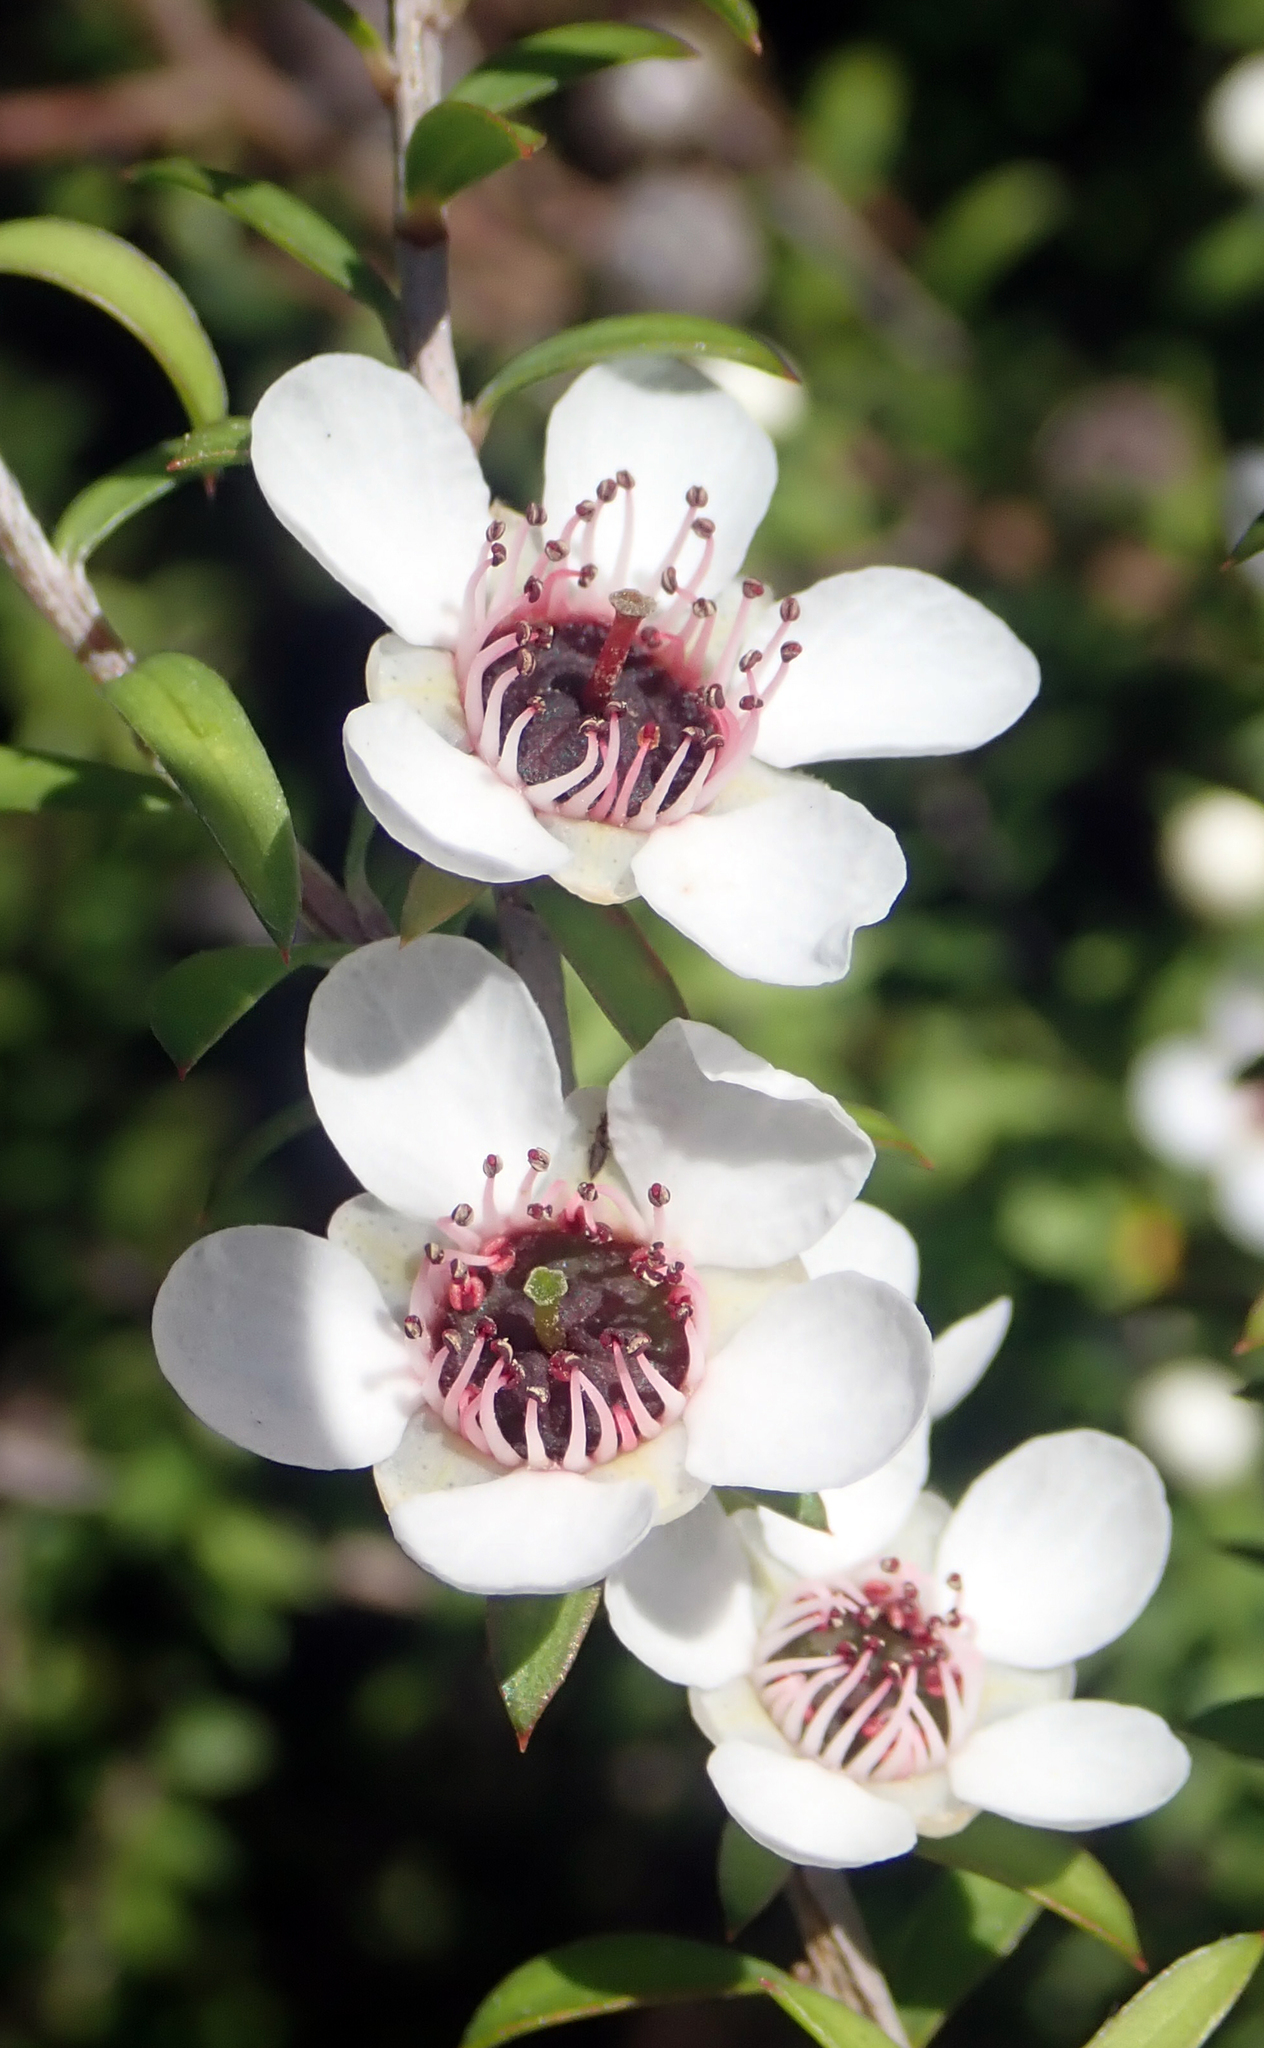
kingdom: Plantae
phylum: Tracheophyta
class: Magnoliopsida
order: Myrtales
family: Myrtaceae
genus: Leptospermum
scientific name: Leptospermum scoparium
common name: Broom tea-tree
